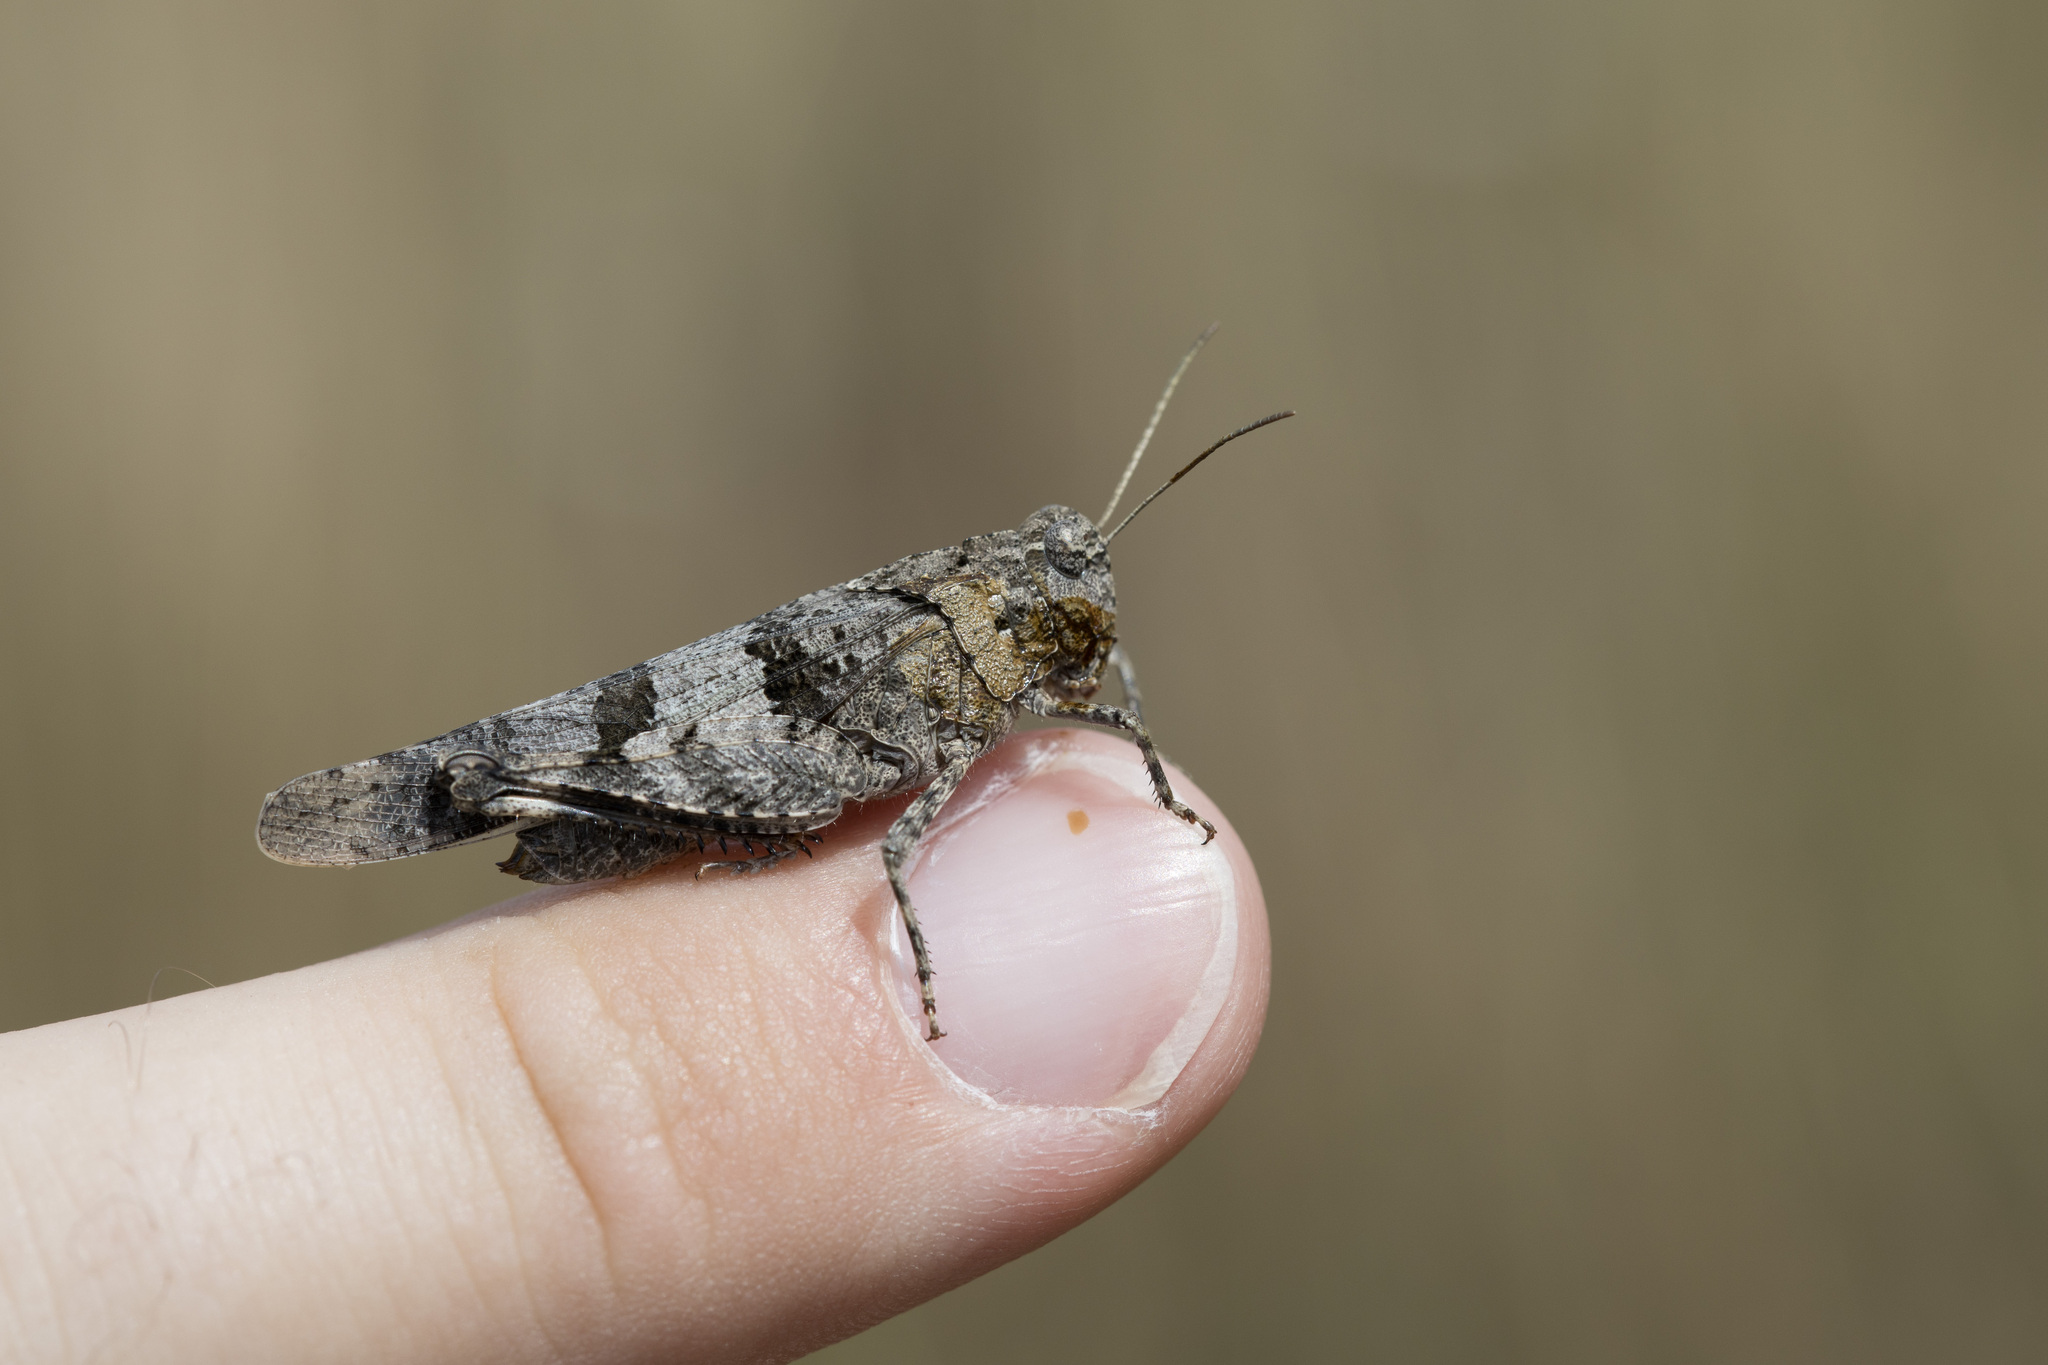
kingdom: Animalia
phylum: Arthropoda
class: Insecta
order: Orthoptera
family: Acrididae
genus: Oedipoda
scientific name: Oedipoda caerulescens
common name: Blue-winged grasshopper
